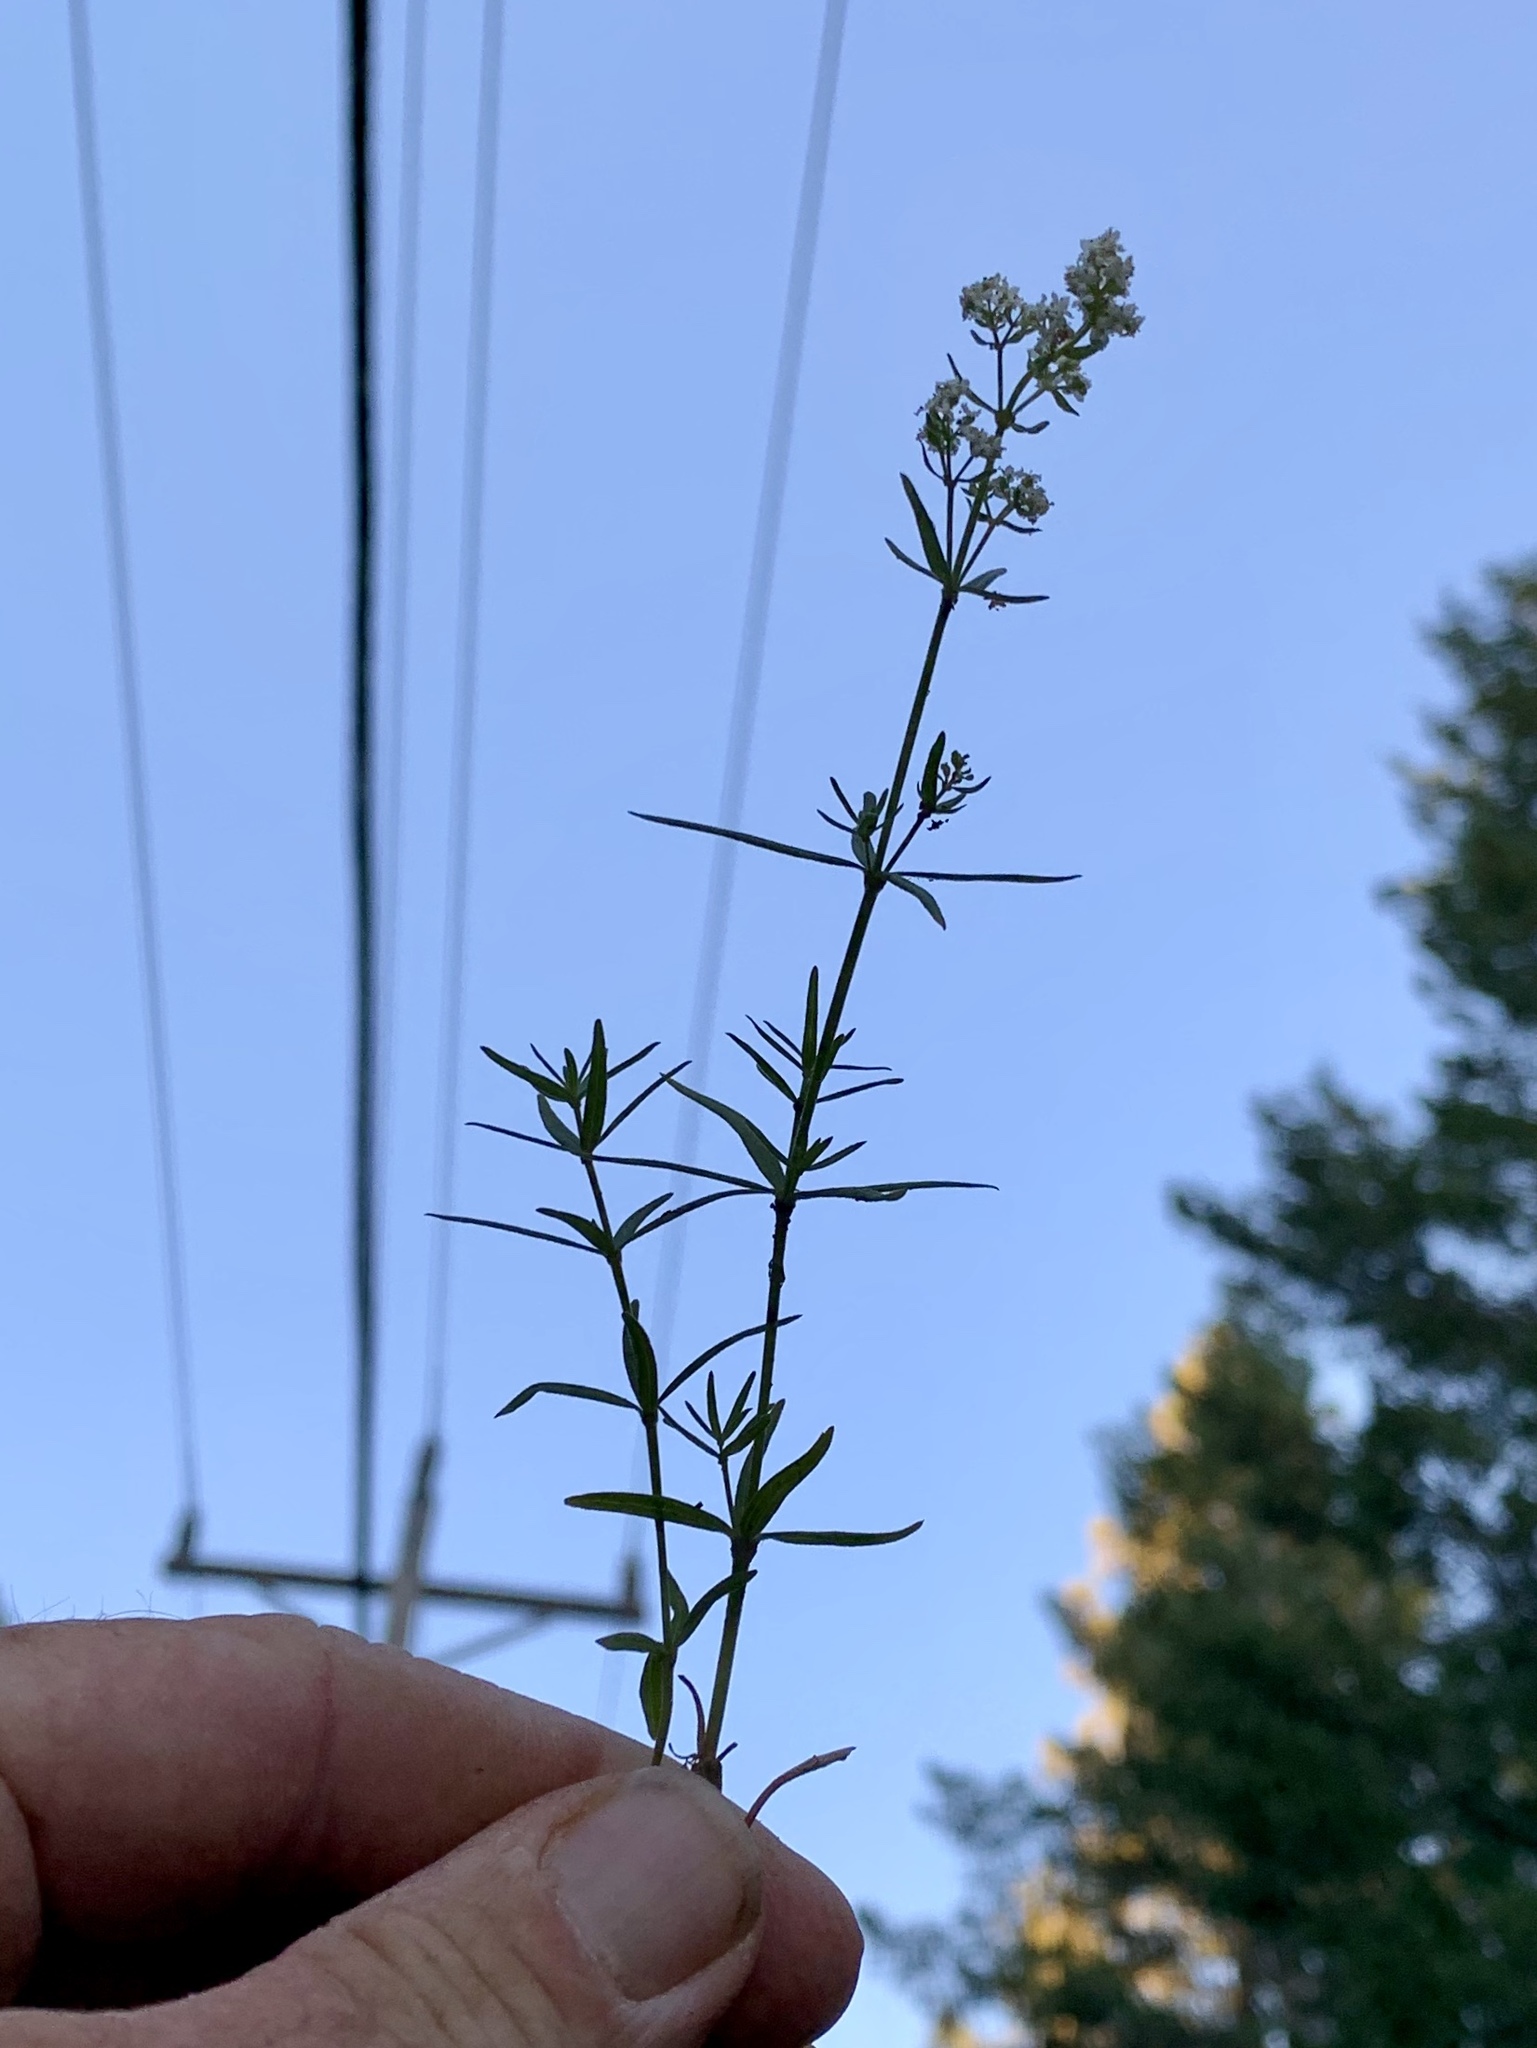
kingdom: Plantae
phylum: Tracheophyta
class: Magnoliopsida
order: Gentianales
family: Rubiaceae
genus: Galium
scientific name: Galium boreale
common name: Northern bedstraw
